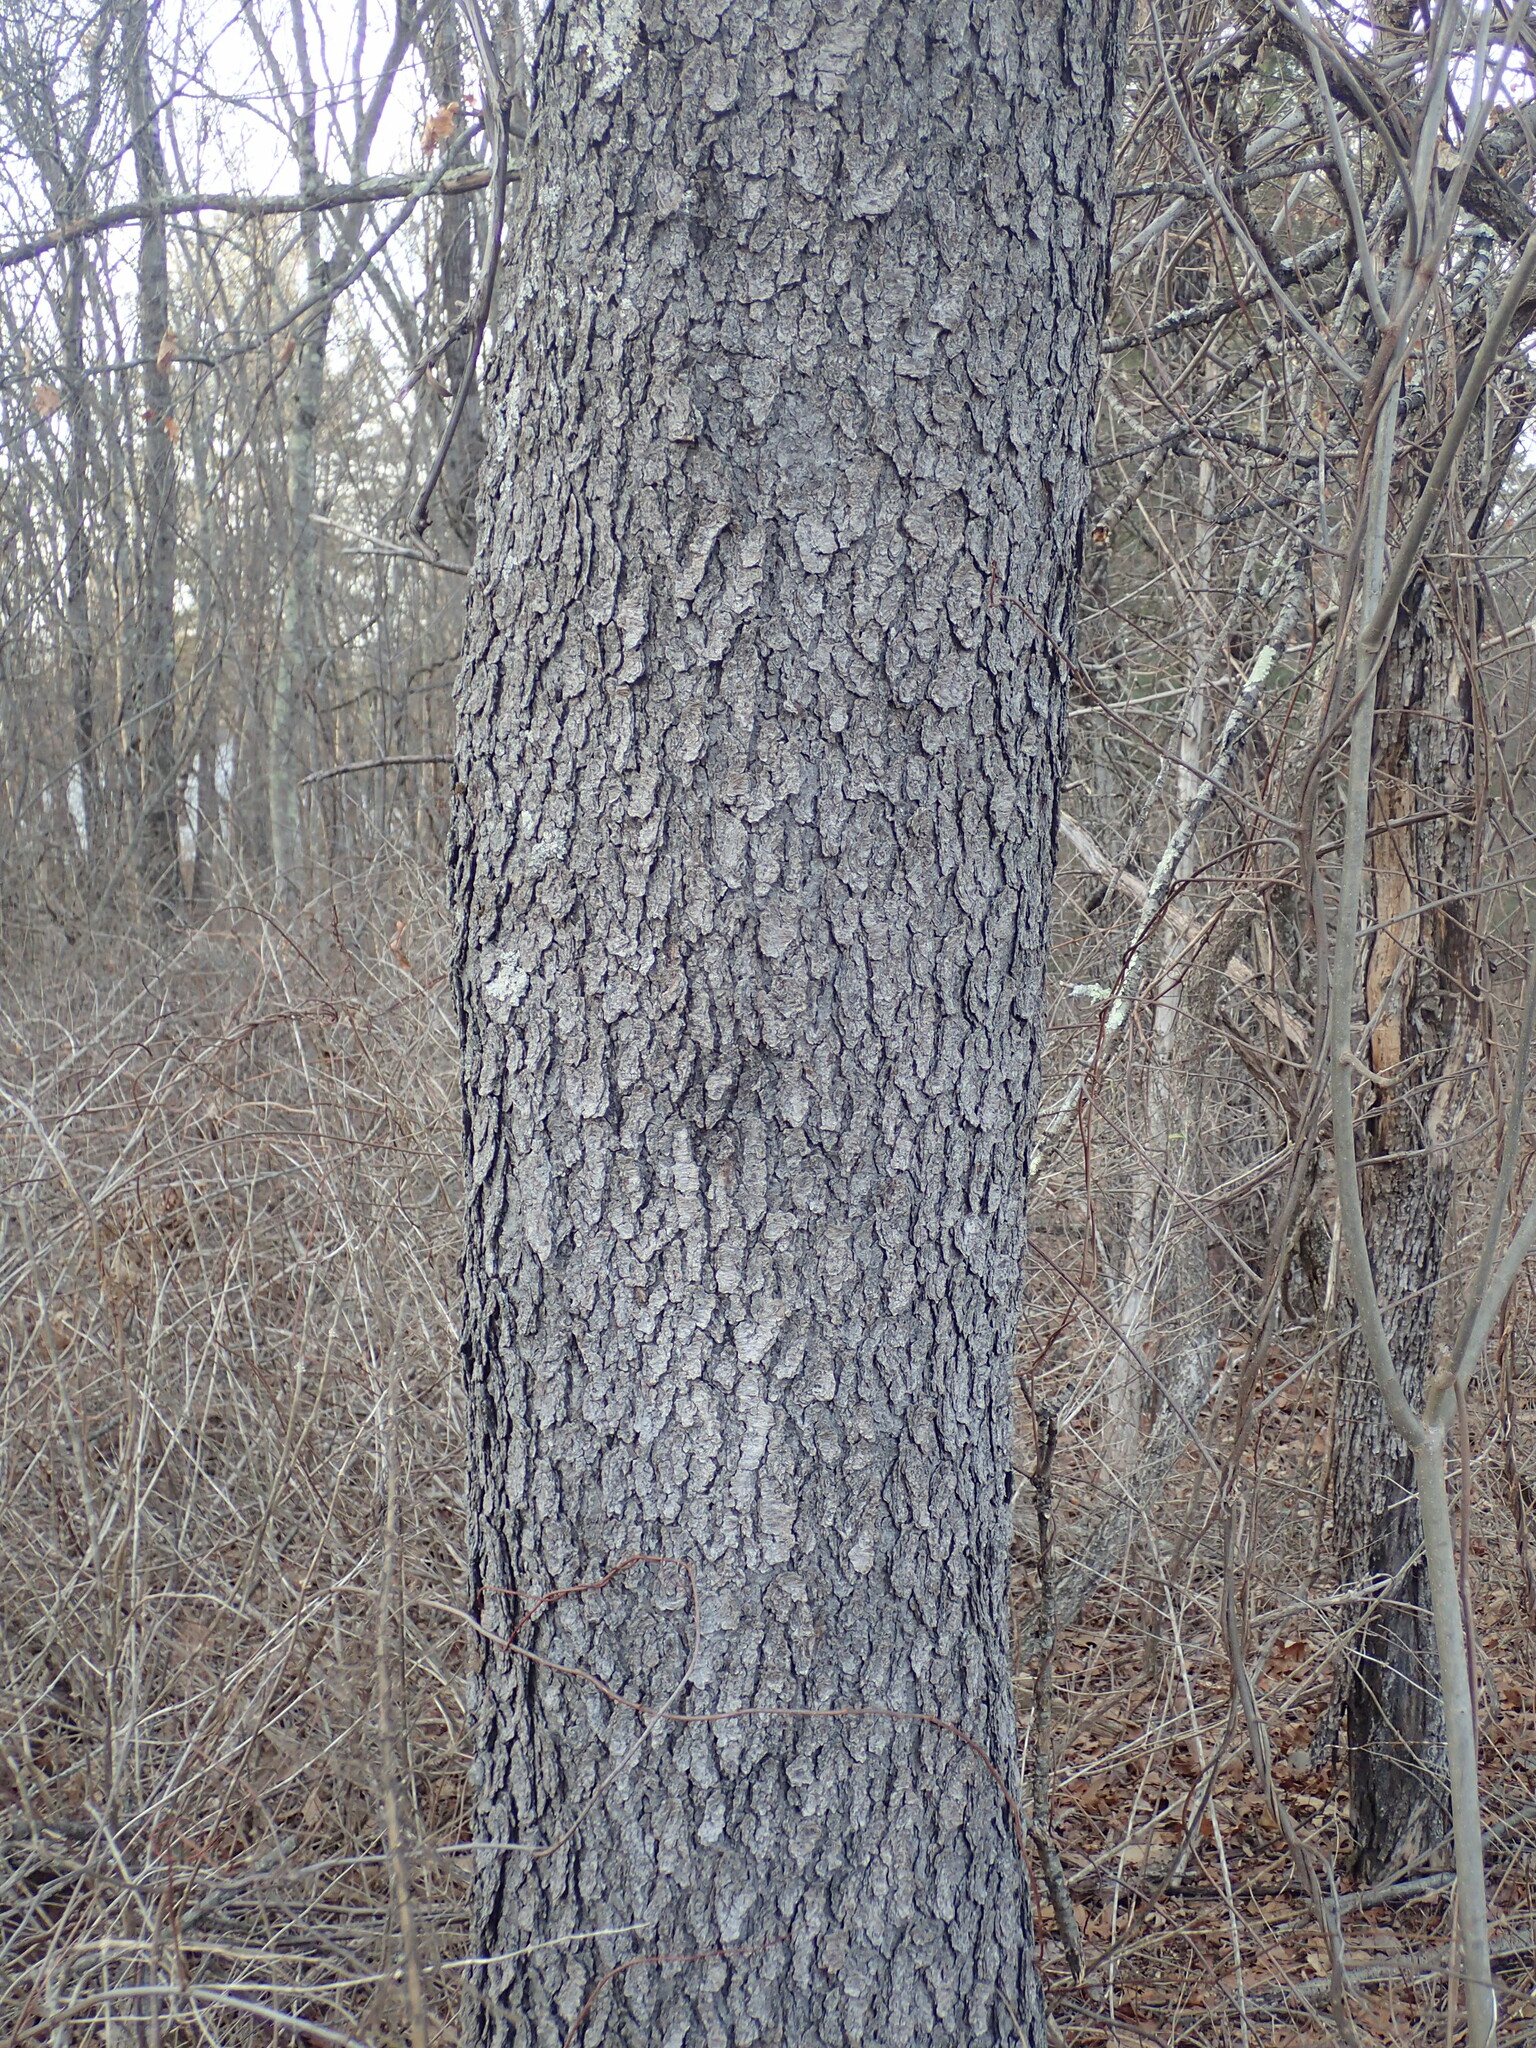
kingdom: Plantae
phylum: Tracheophyta
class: Magnoliopsida
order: Rosales
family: Rosaceae
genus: Prunus
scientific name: Prunus serotina
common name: Black cherry
